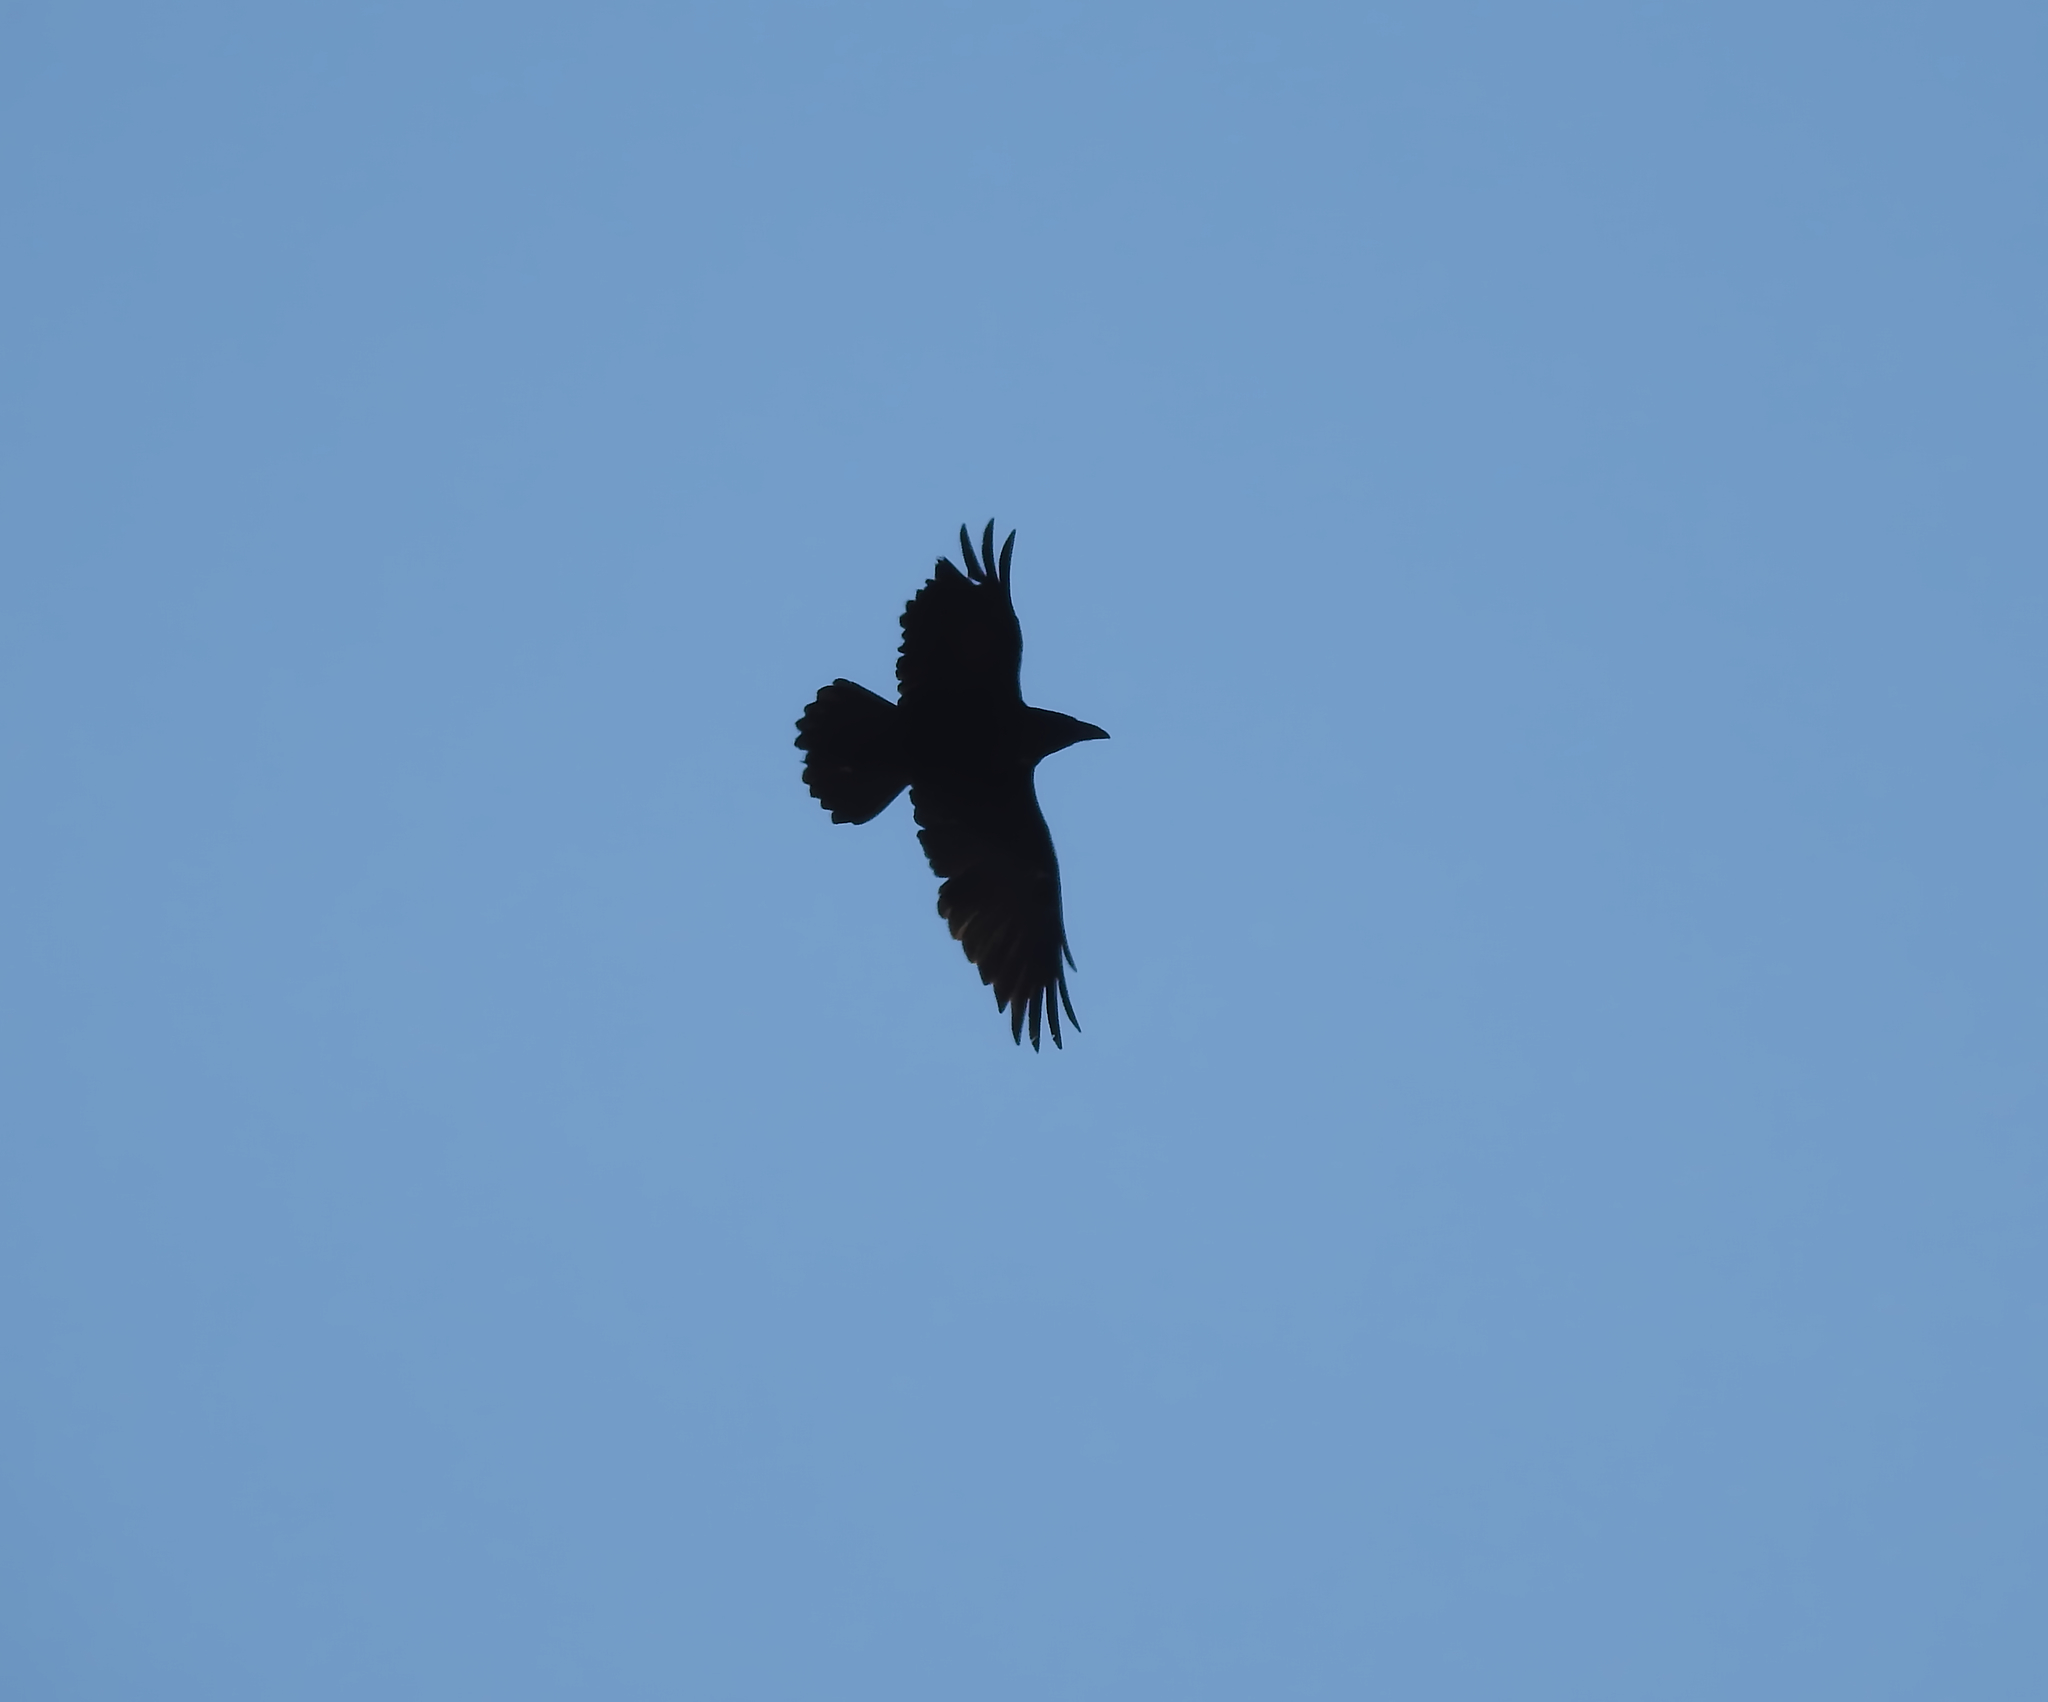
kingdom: Animalia
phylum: Chordata
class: Aves
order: Passeriformes
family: Corvidae
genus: Corvus
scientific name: Corvus corax
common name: Common raven
